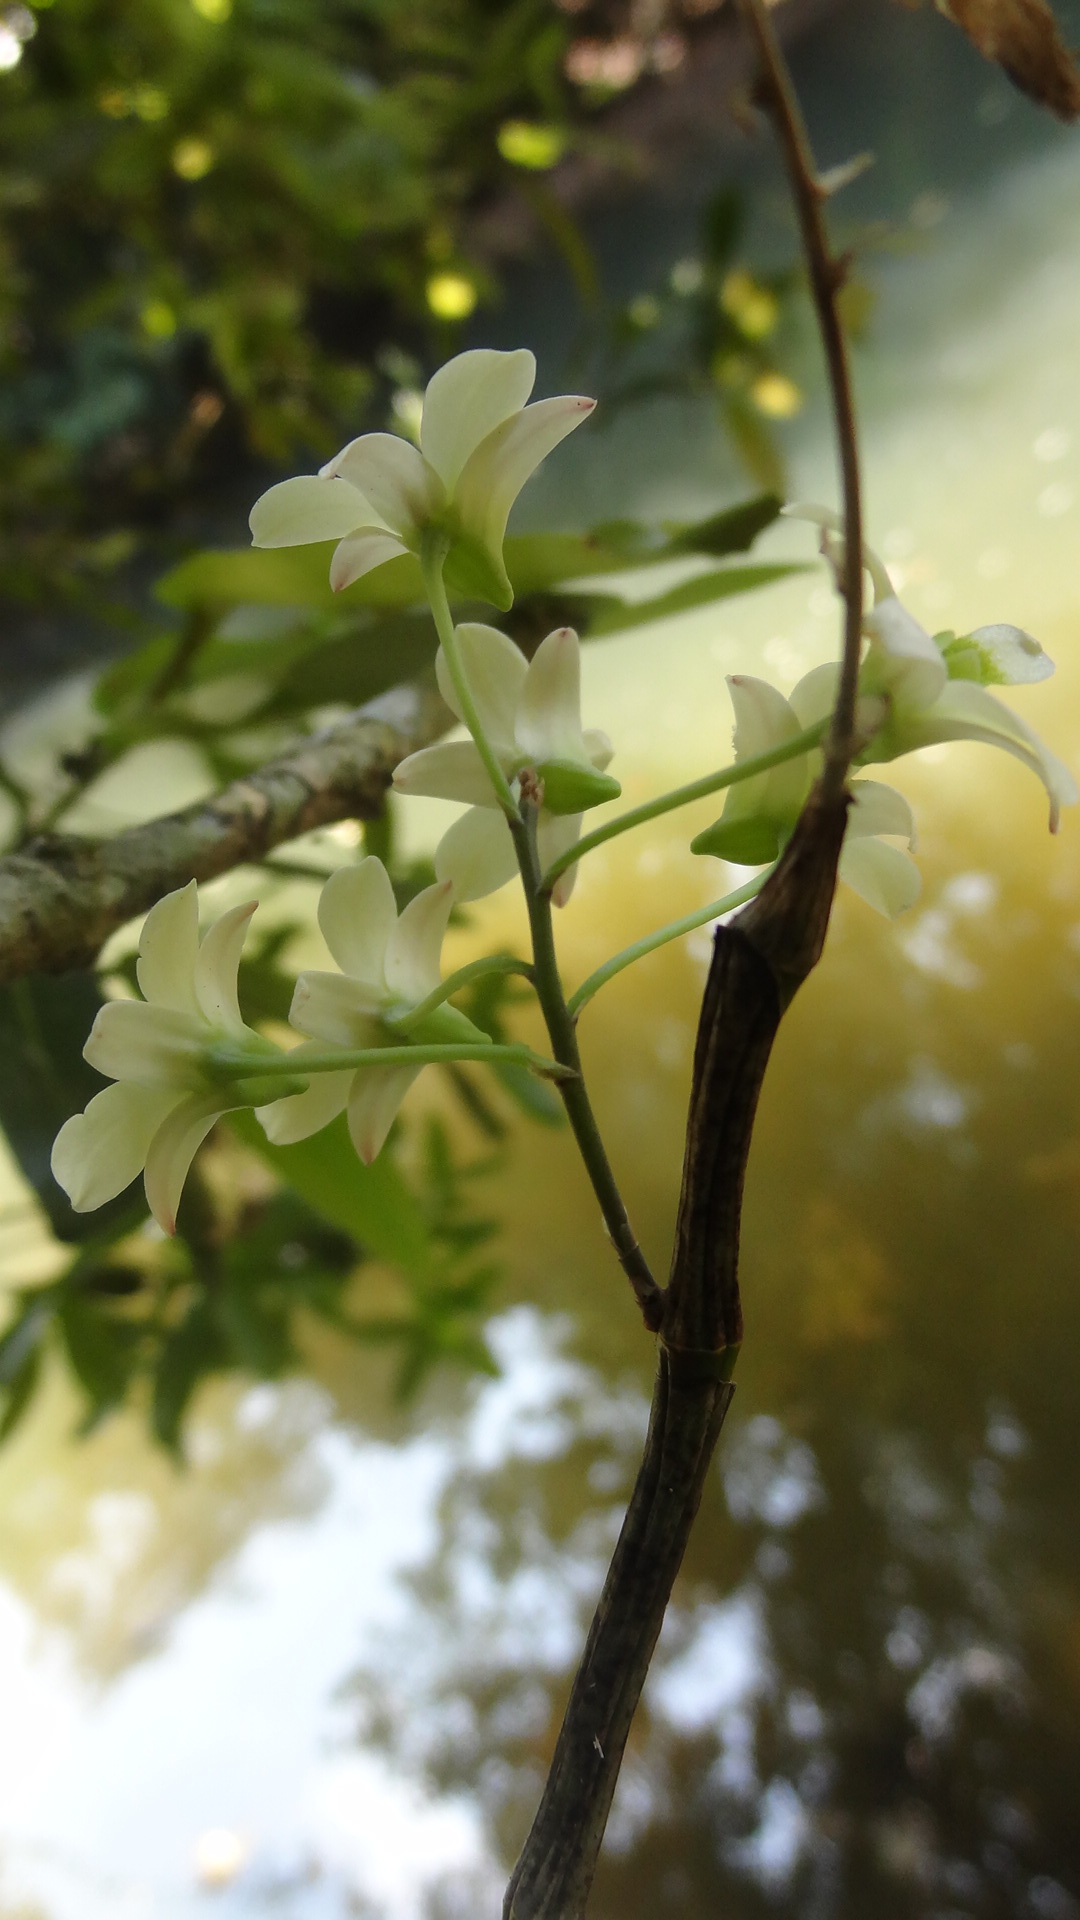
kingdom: Plantae
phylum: Tracheophyta
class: Liliopsida
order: Asparagales
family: Orchidaceae
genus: Dendrobium
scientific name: Dendrobium ovatum
